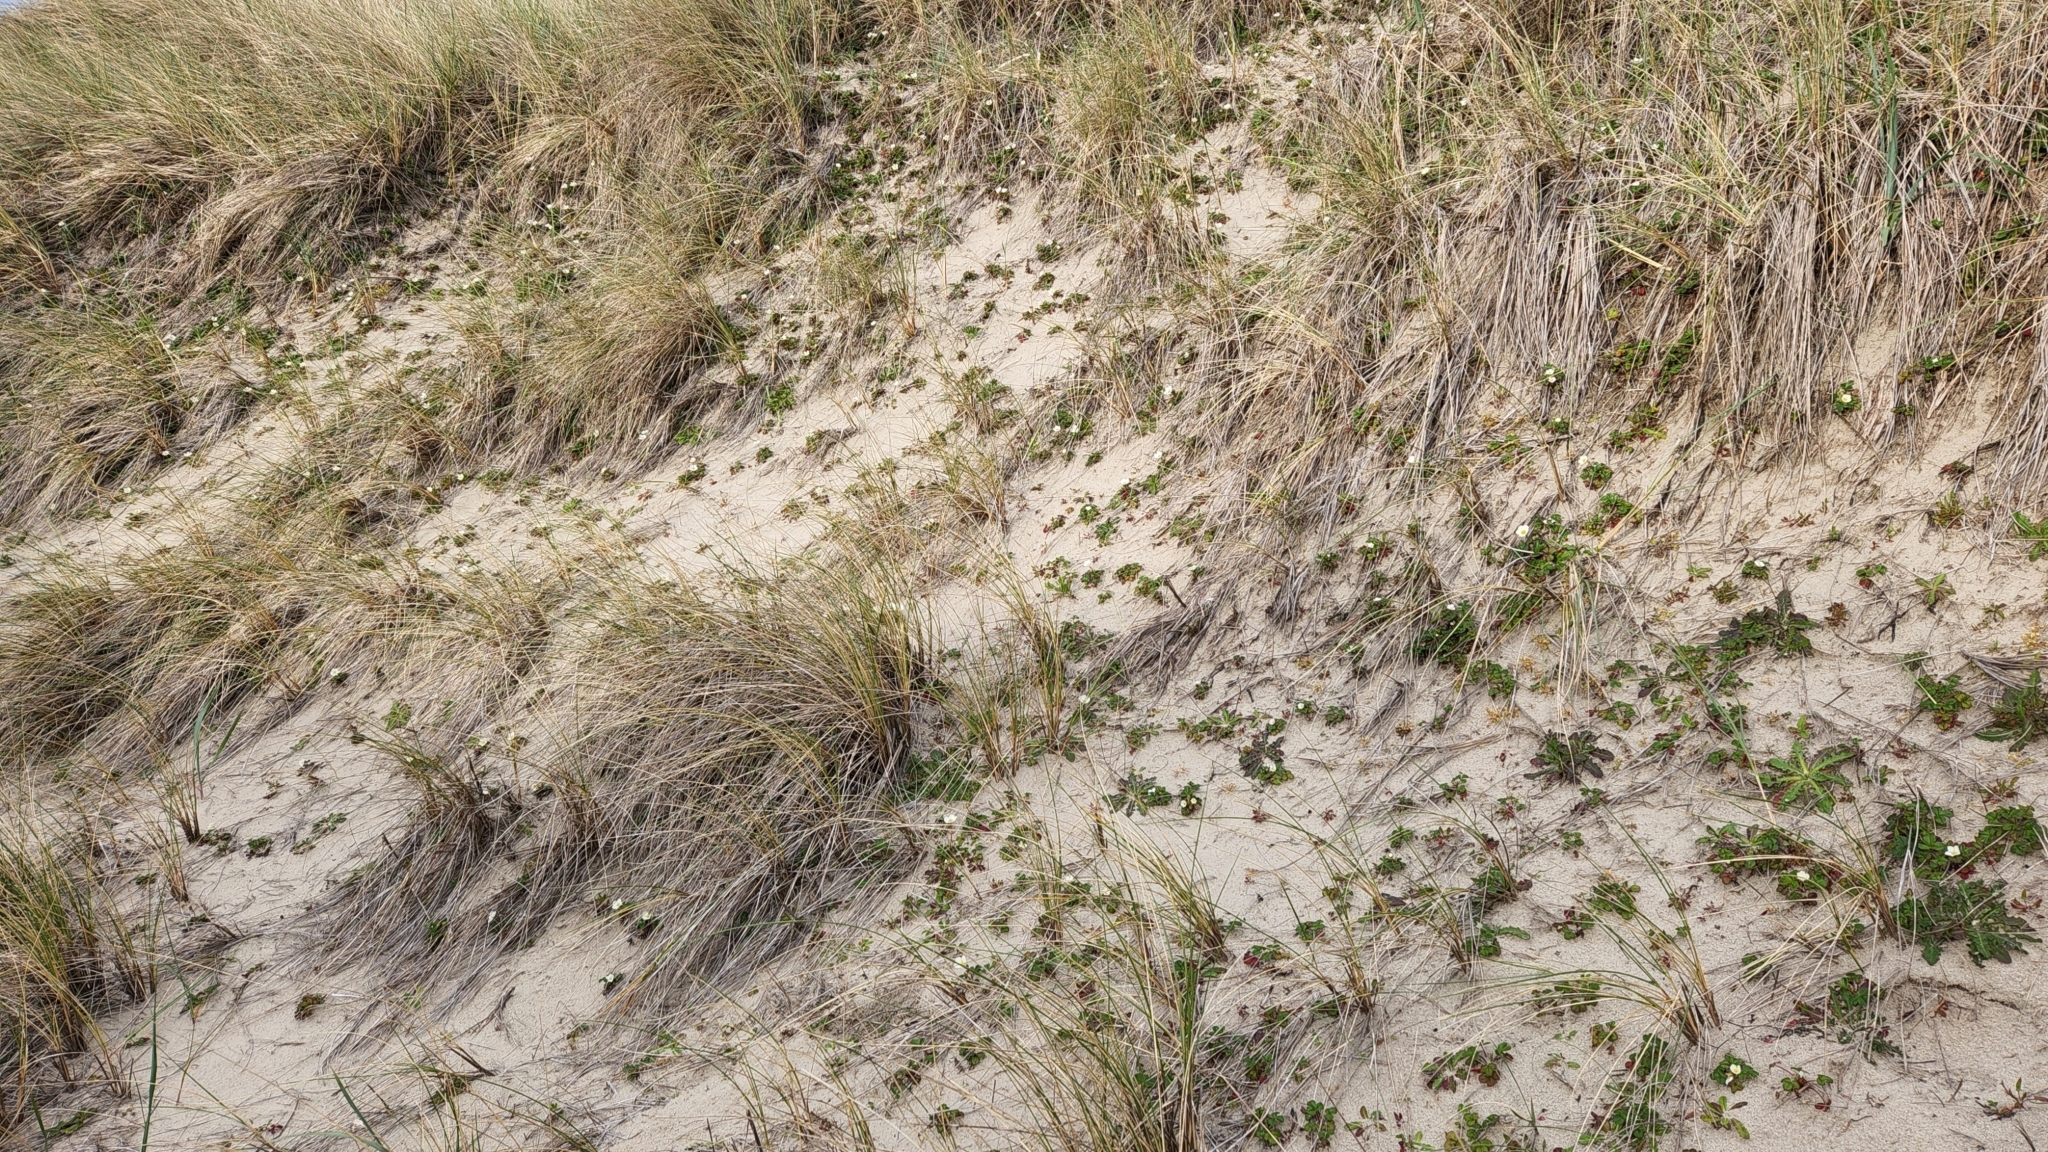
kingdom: Plantae
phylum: Tracheophyta
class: Magnoliopsida
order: Rosales
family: Rosaceae
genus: Fragaria
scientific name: Fragaria chiloensis
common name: Beach strawberry
